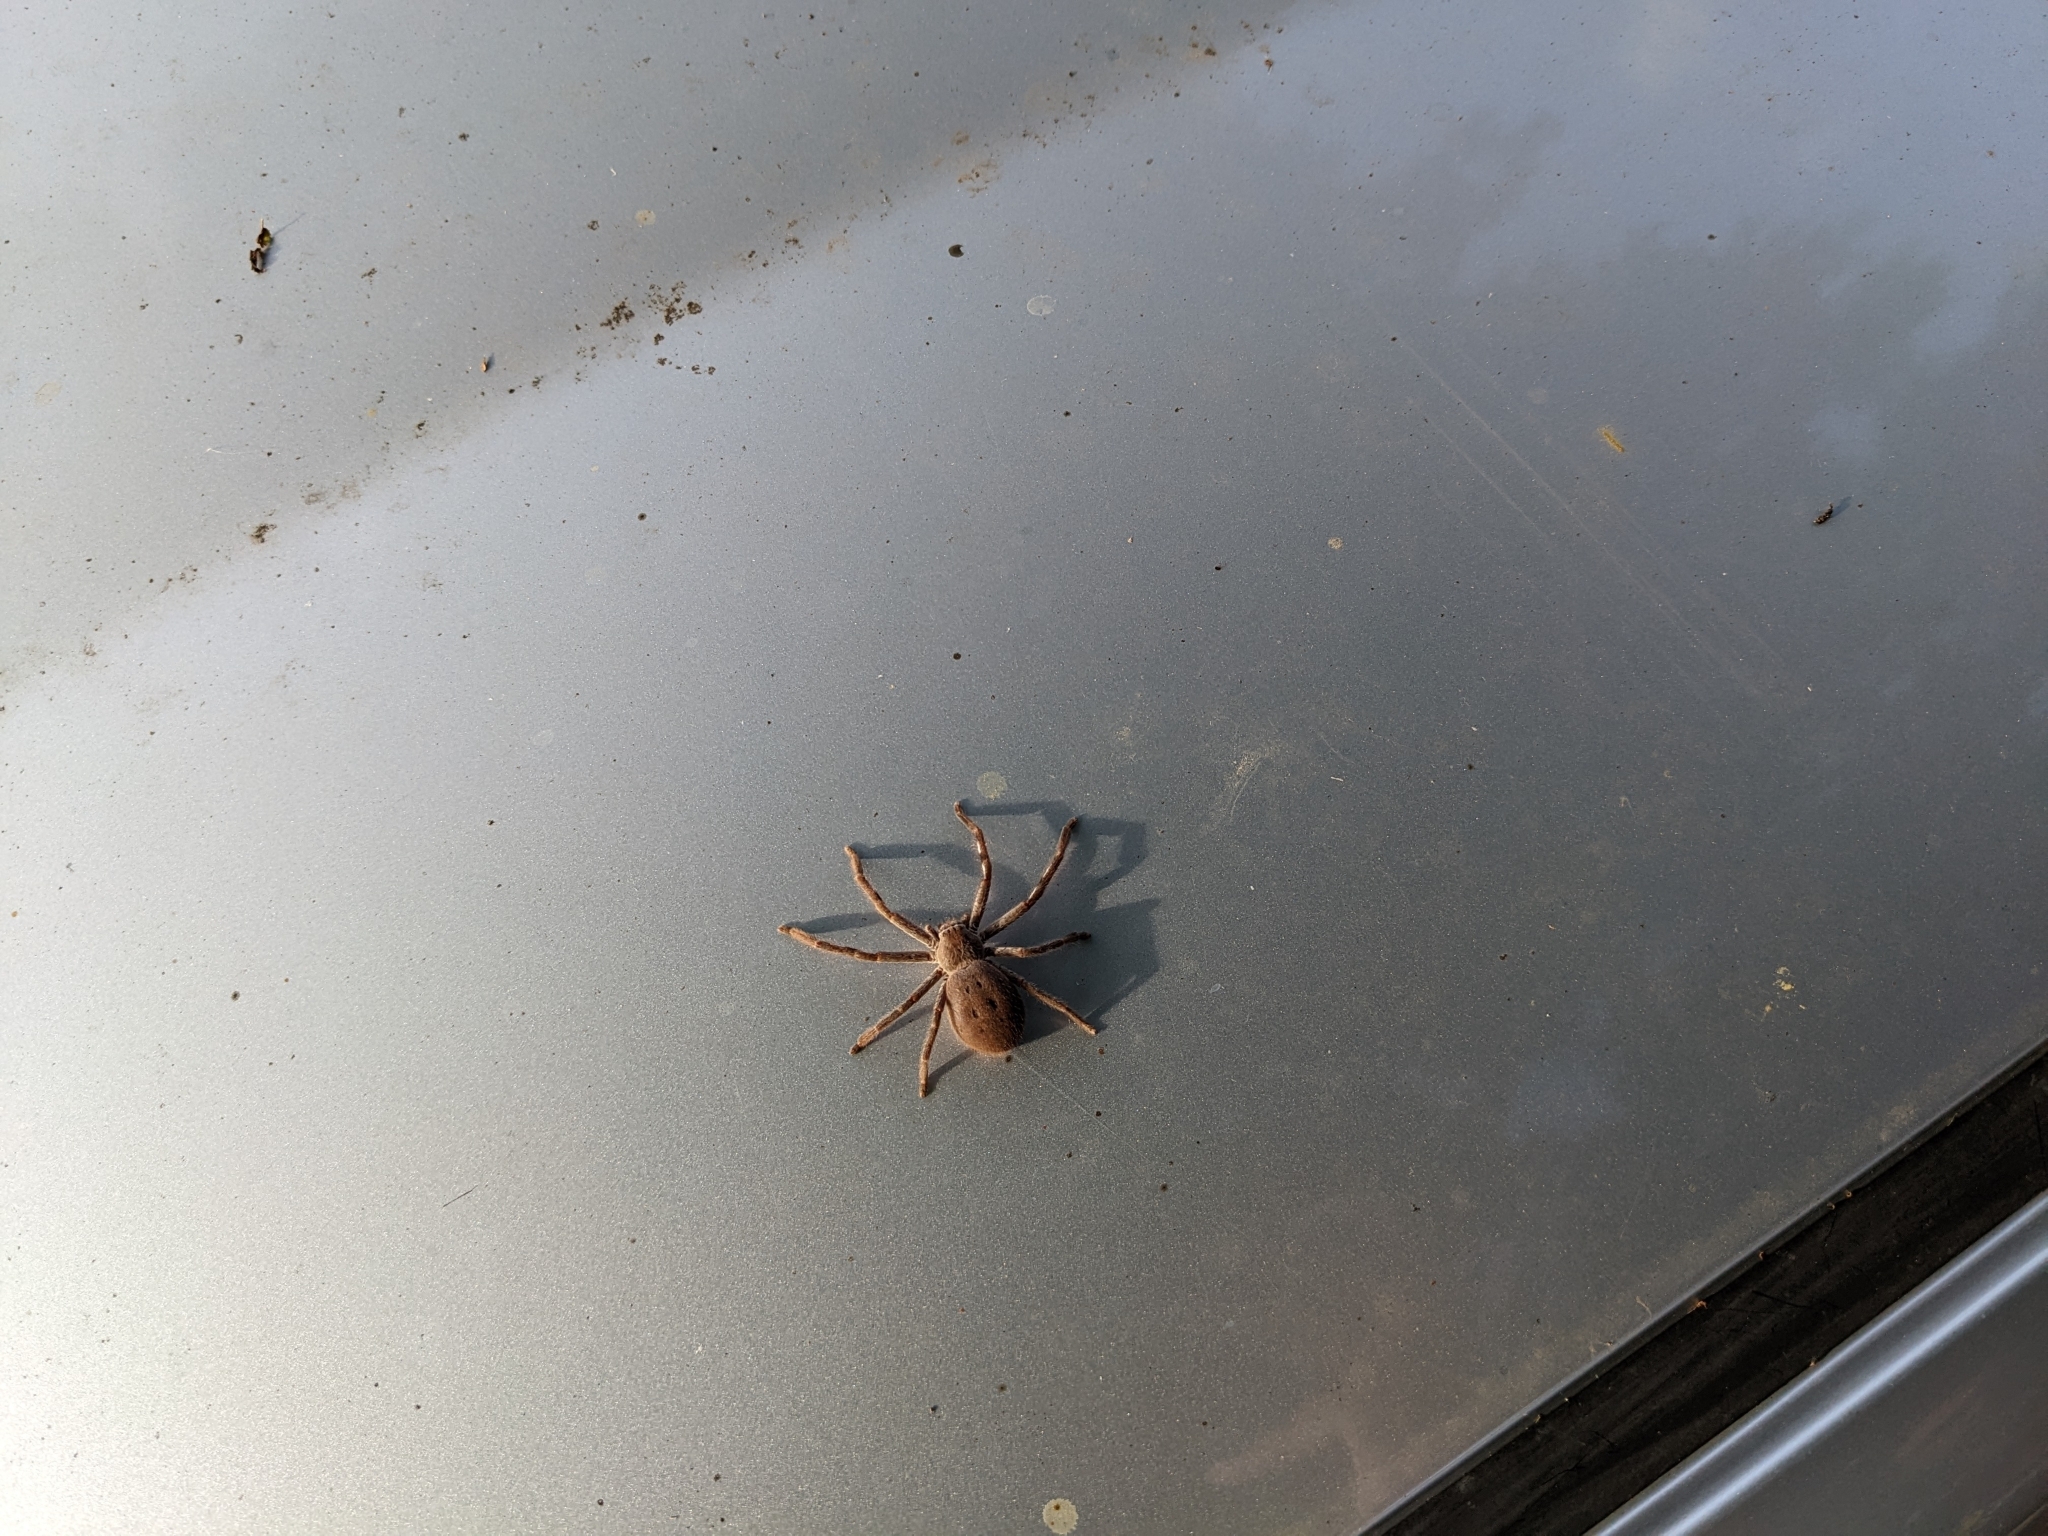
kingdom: Animalia
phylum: Arthropoda
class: Arachnida
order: Araneae
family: Sparassidae
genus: Isopedella
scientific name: Isopedella leai
